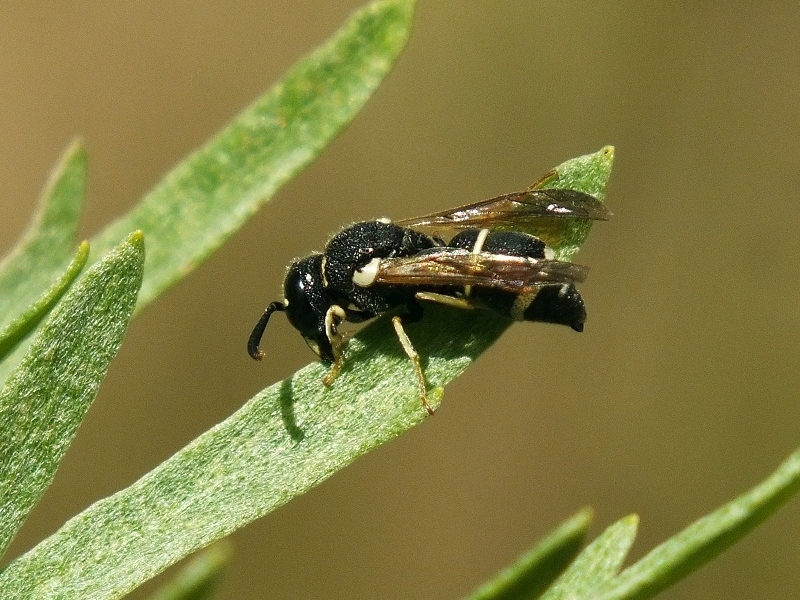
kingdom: Animalia
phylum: Arthropoda
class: Insecta
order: Hymenoptera
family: Eumenidae
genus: Alastor
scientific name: Alastor mocsaryi
